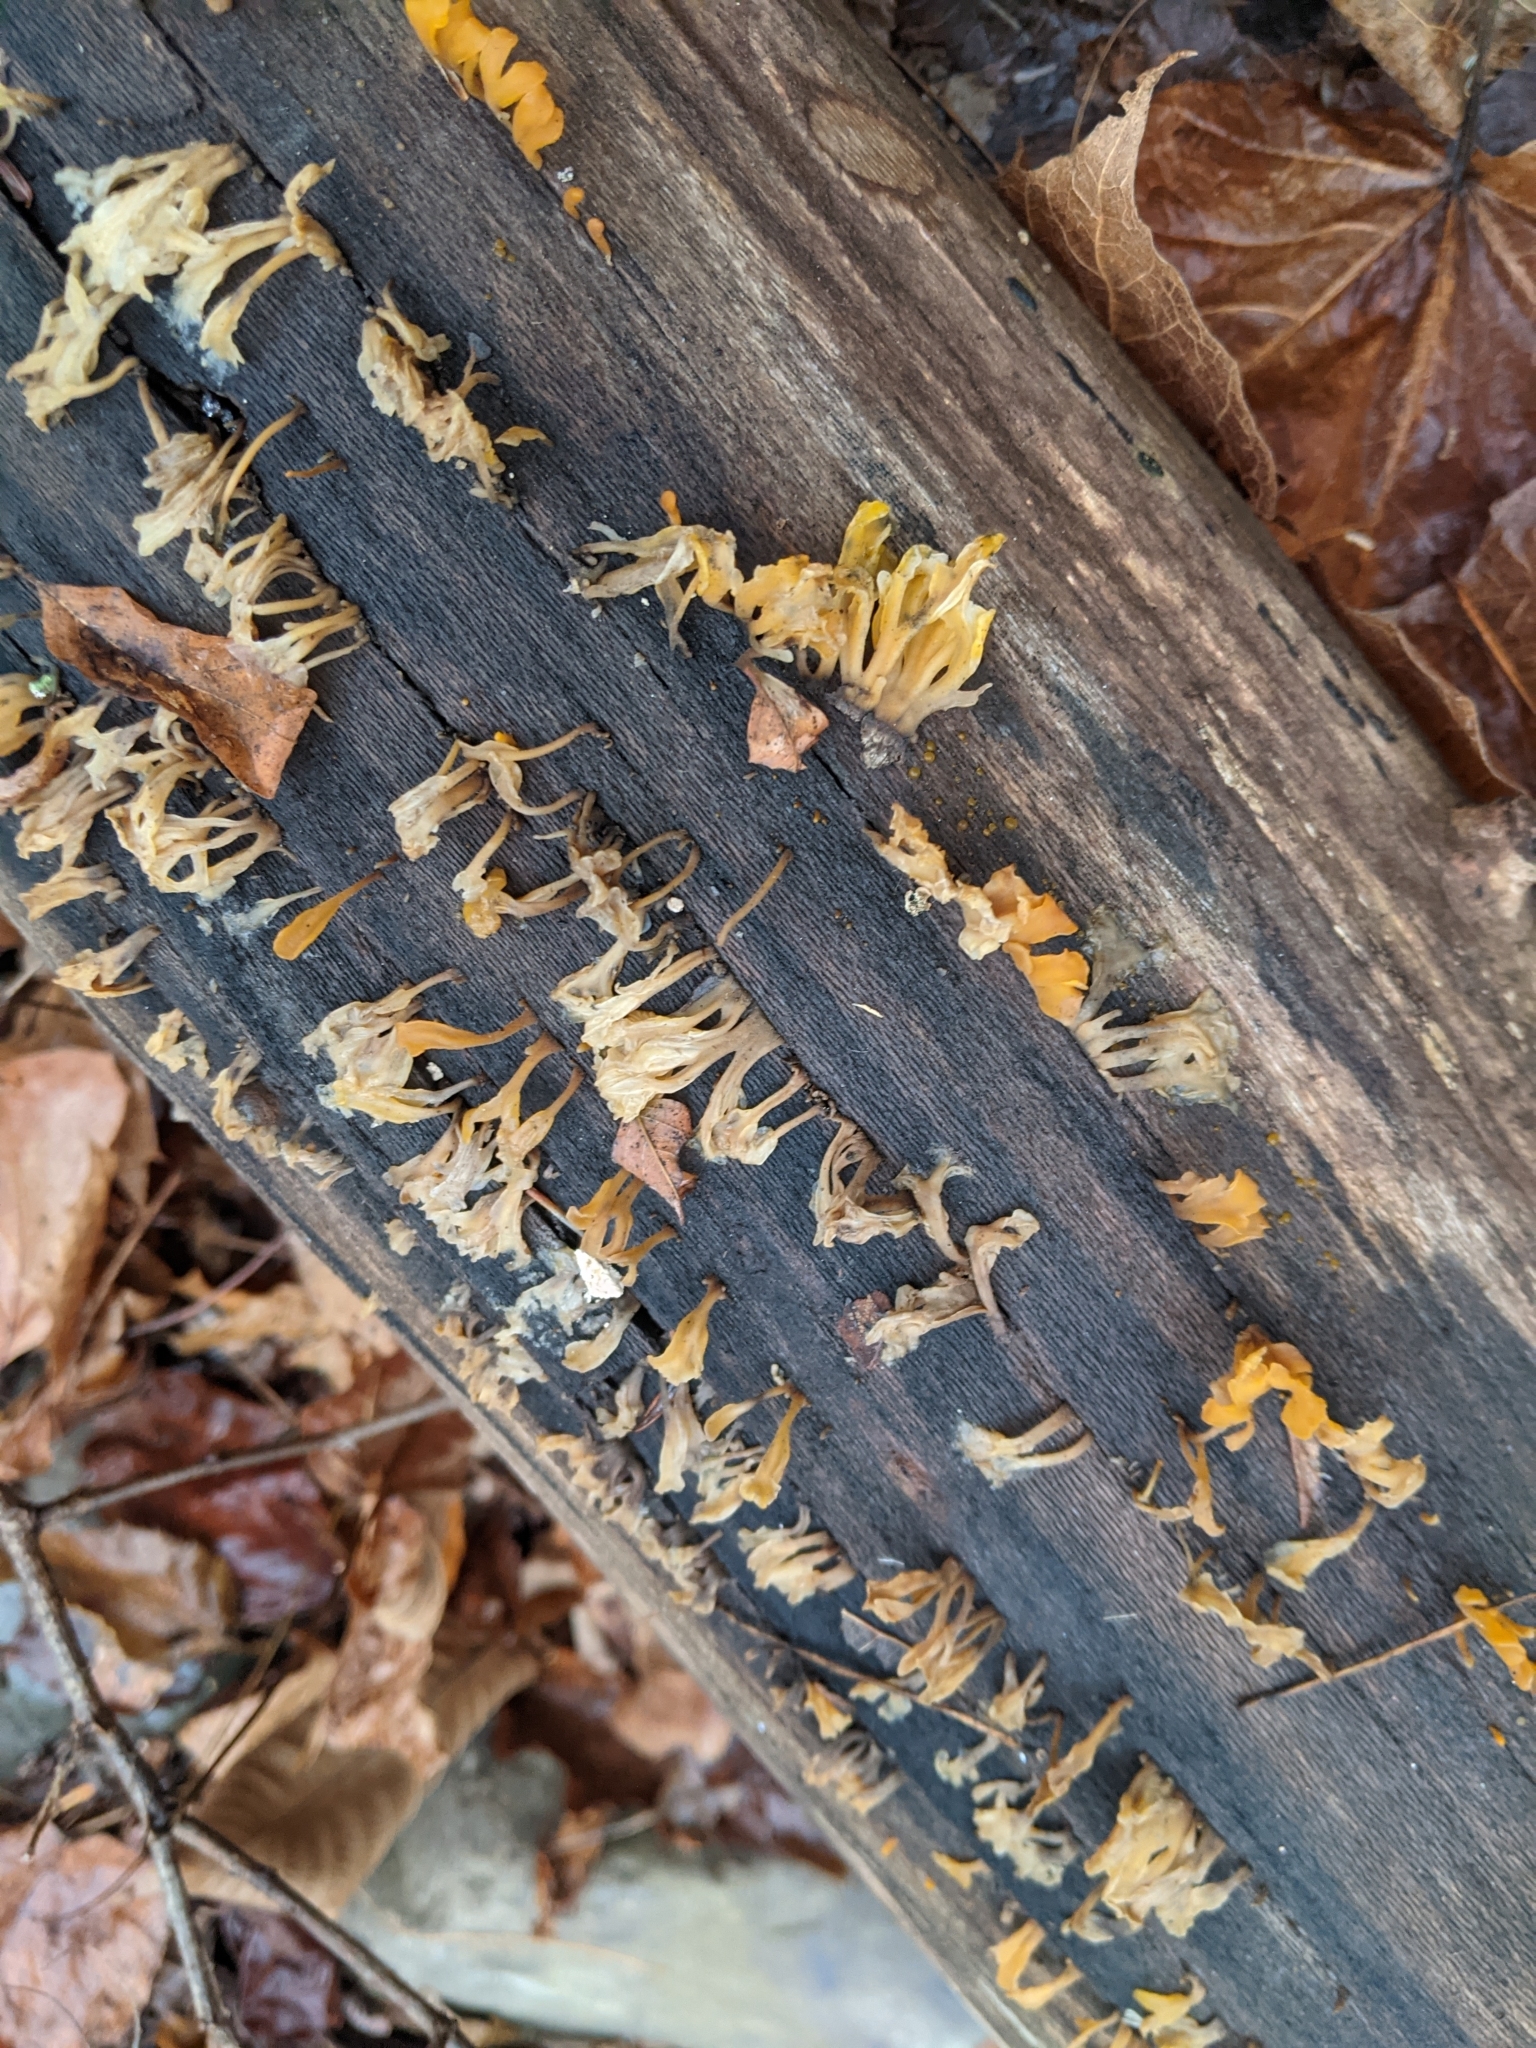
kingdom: Fungi
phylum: Basidiomycota
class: Dacrymycetes
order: Dacrymycetales
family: Dacrymycetaceae
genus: Dacrymyces
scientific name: Dacrymyces spathularius
